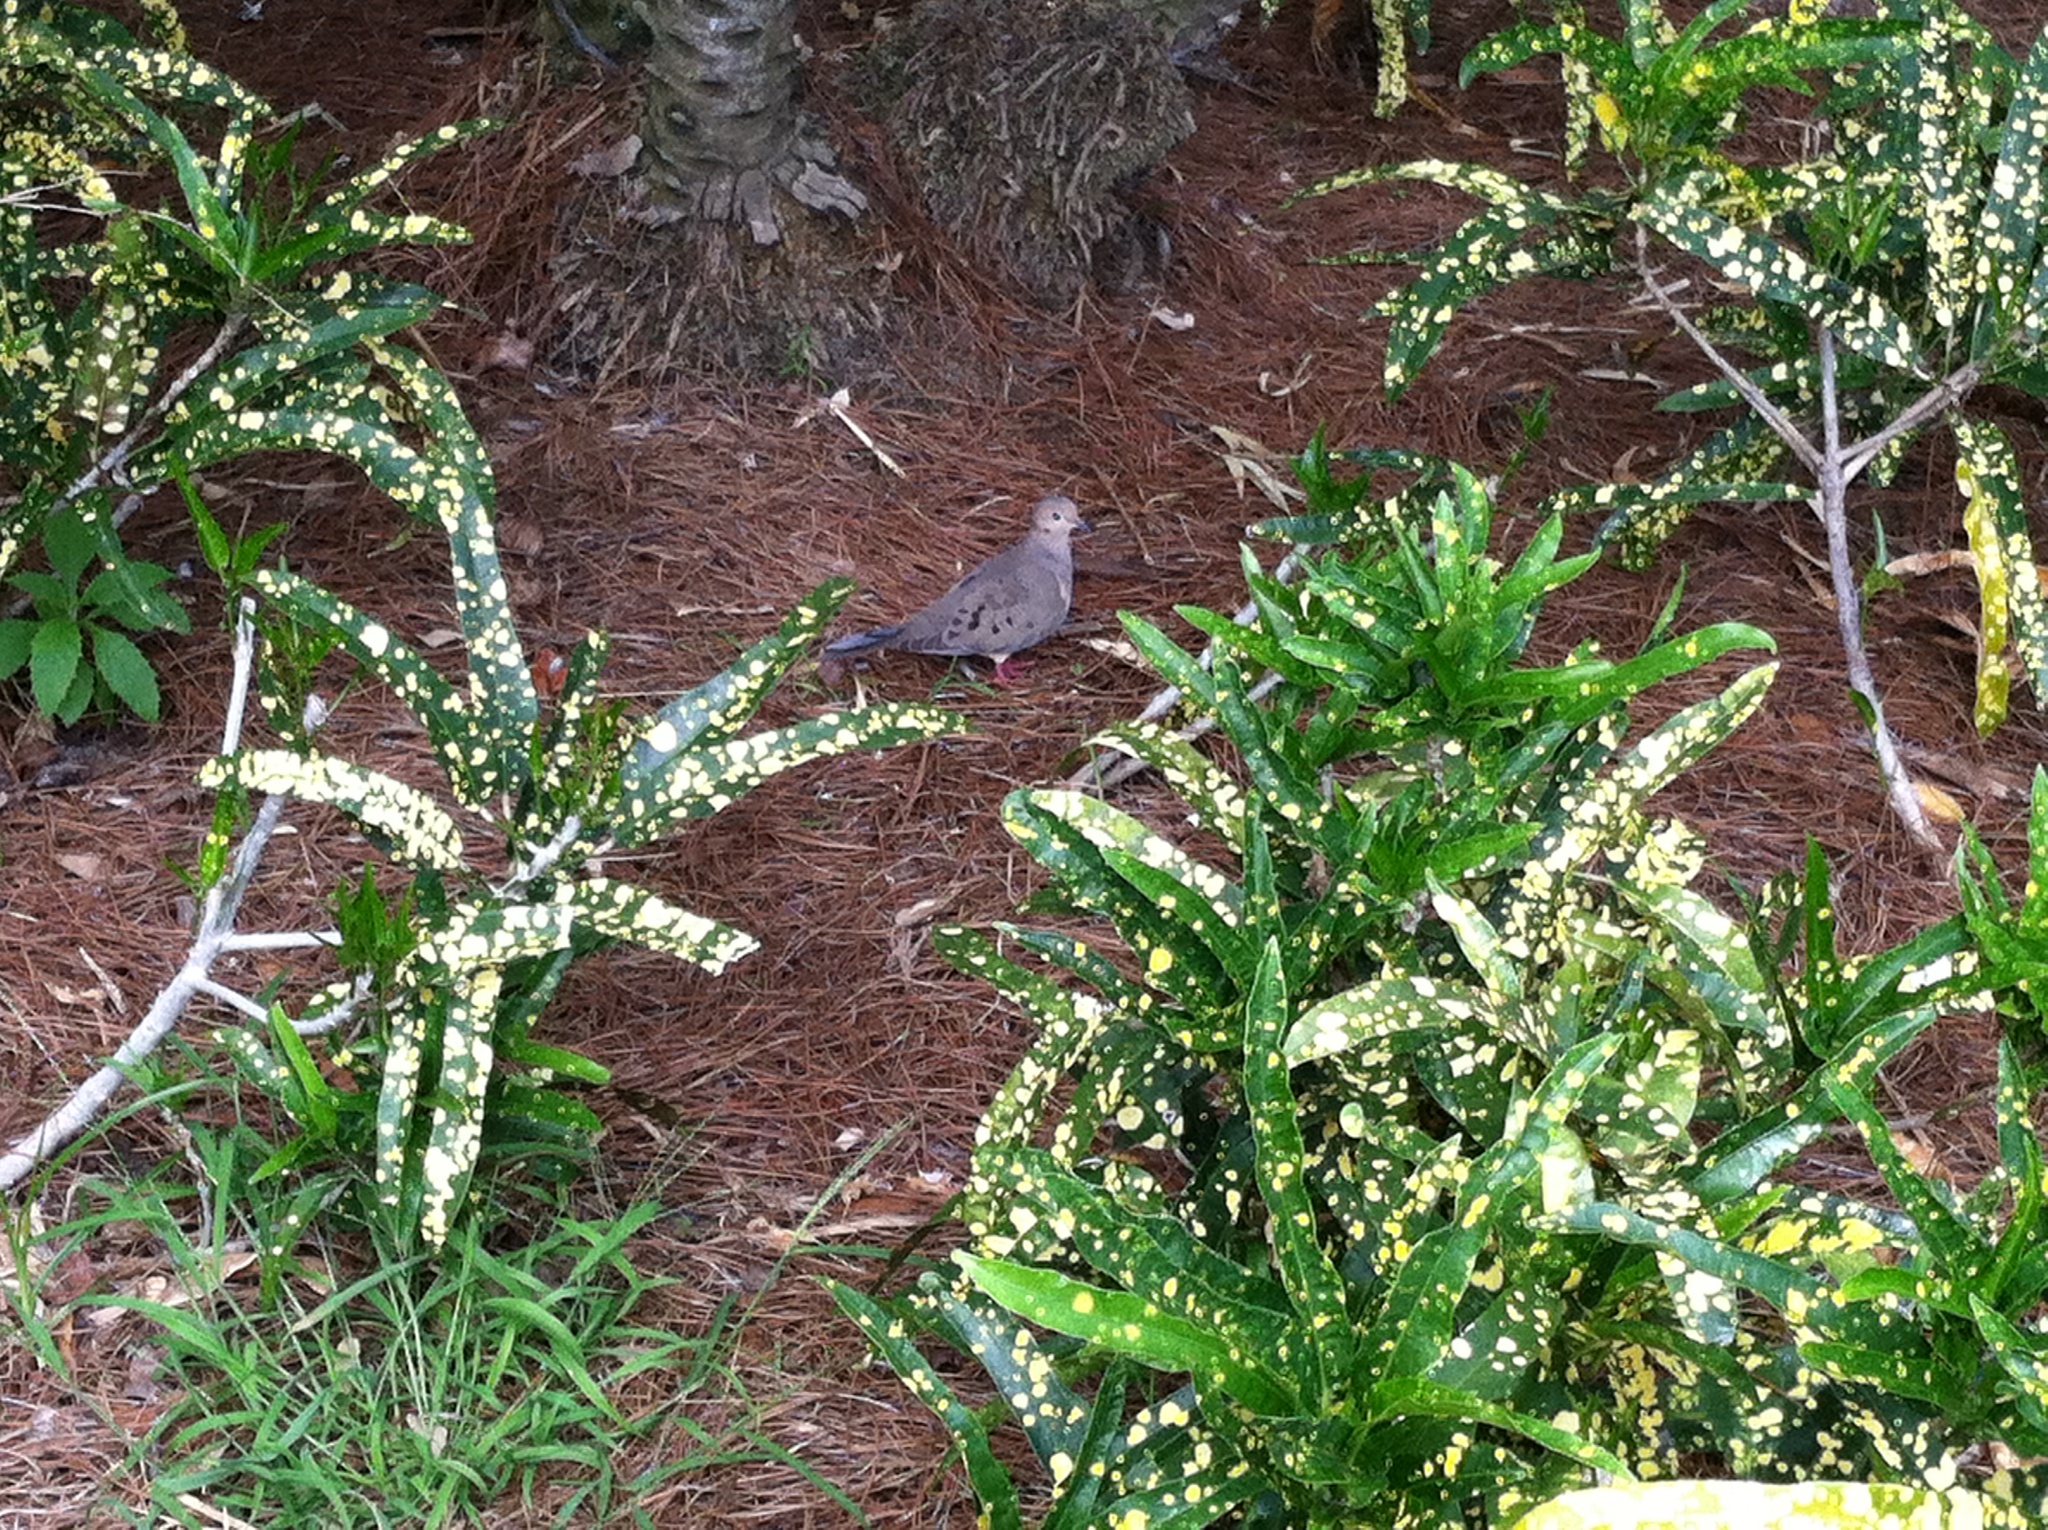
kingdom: Animalia
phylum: Chordata
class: Aves
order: Columbiformes
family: Columbidae
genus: Zenaida
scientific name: Zenaida macroura
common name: Mourning dove
